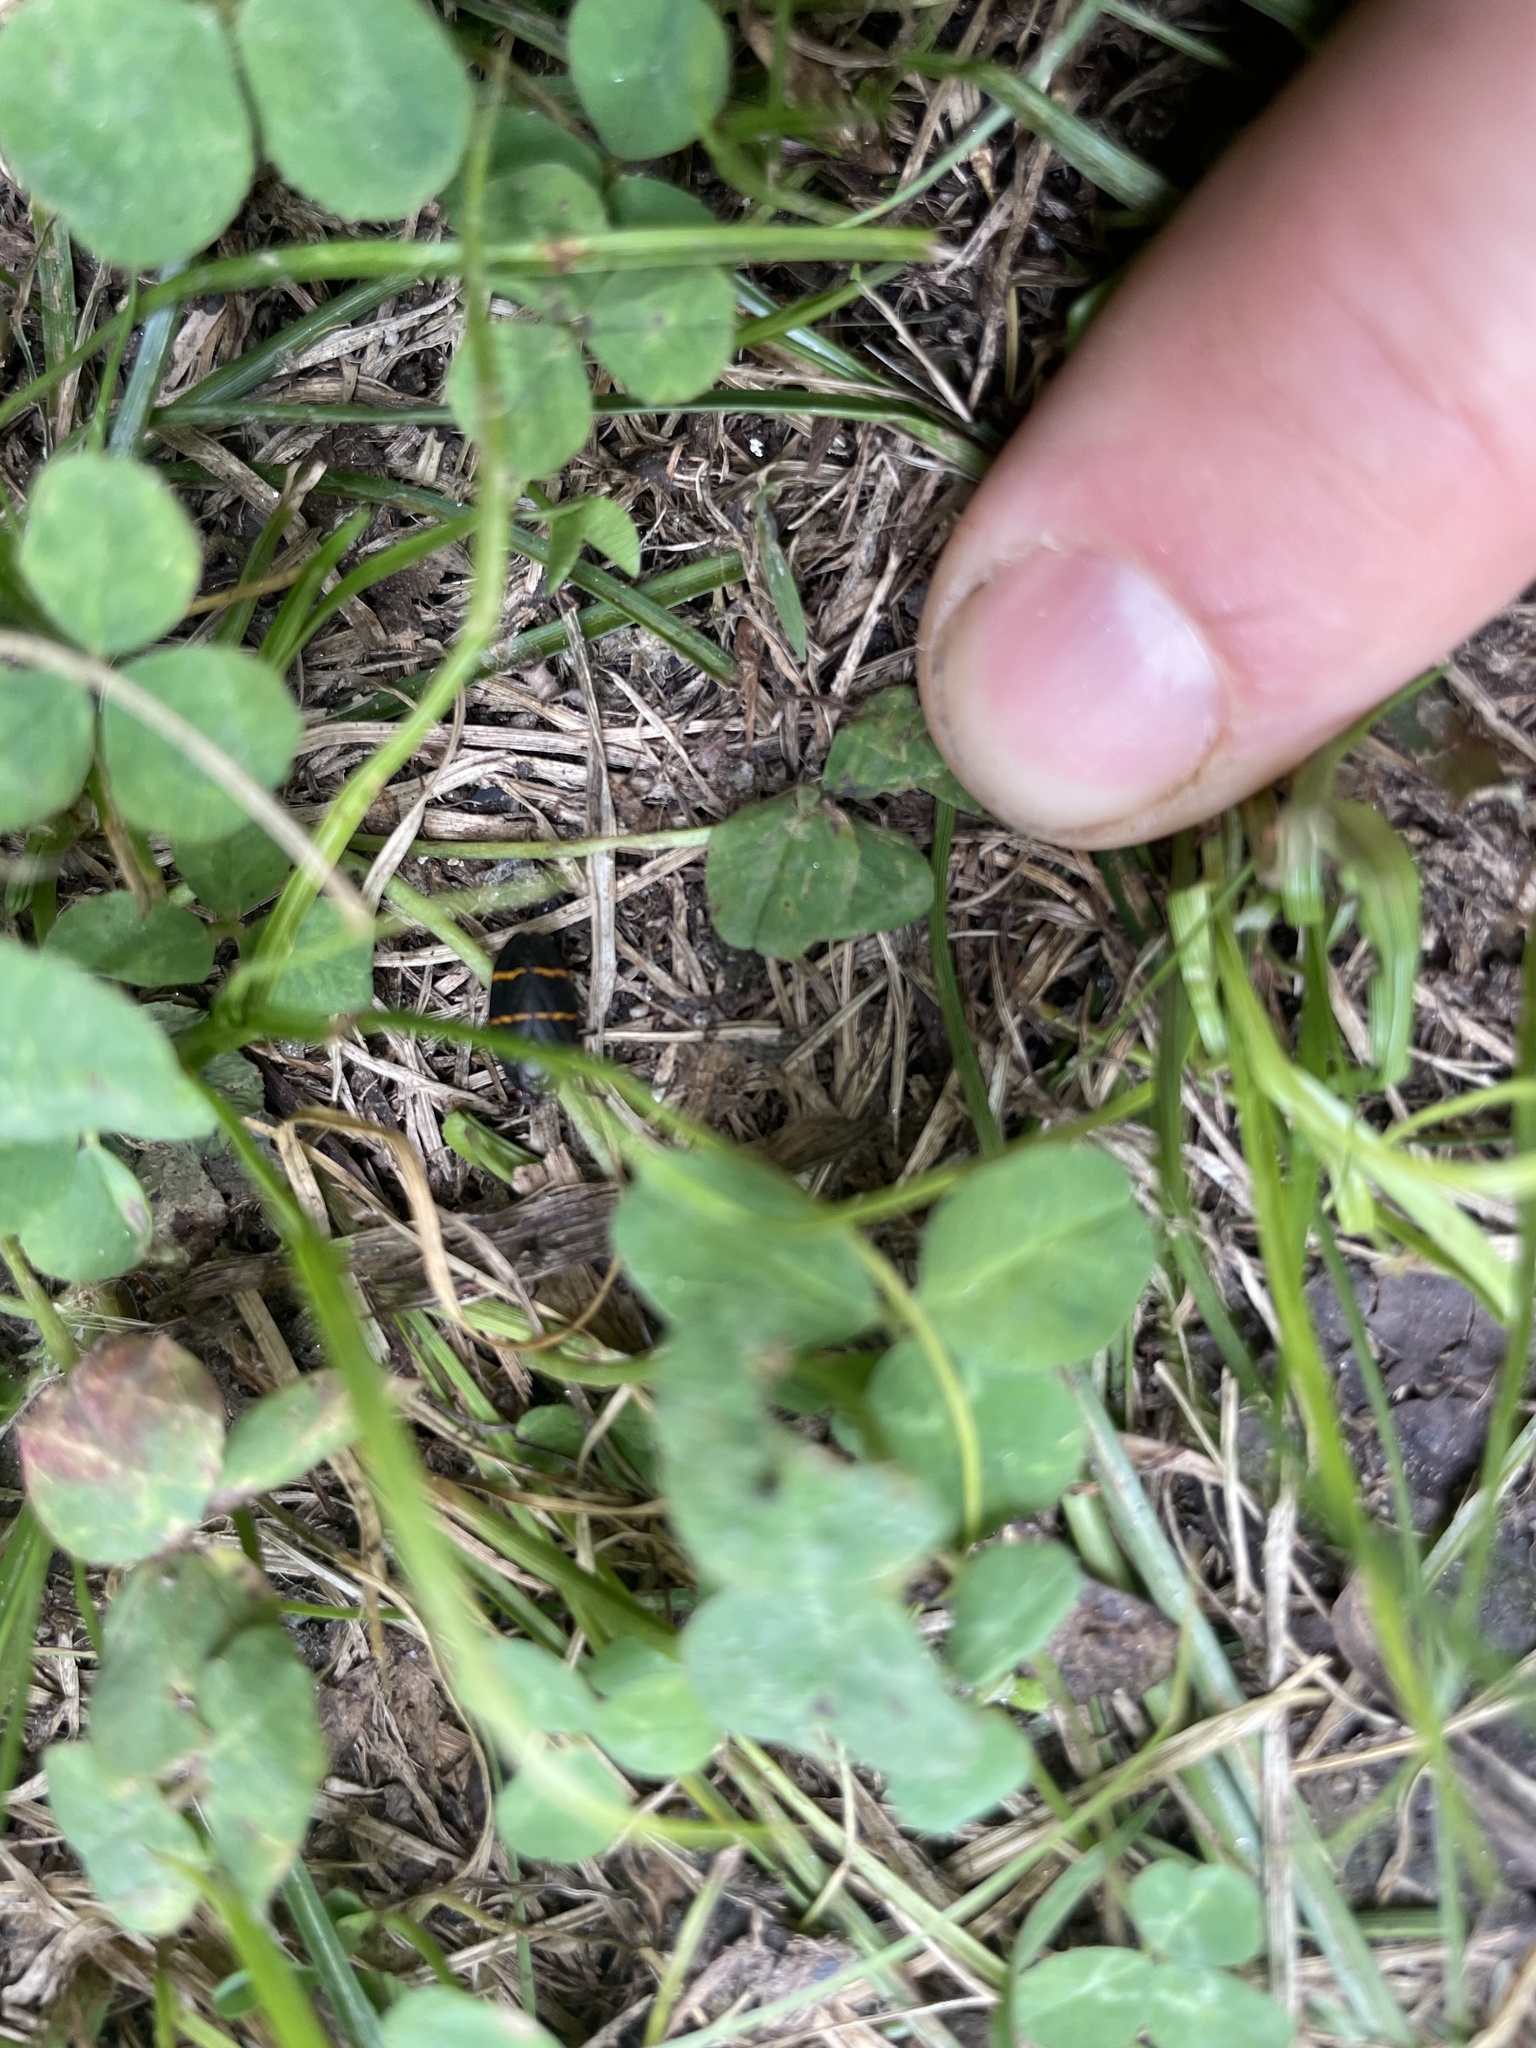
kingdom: Animalia
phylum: Arthropoda
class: Insecta
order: Hemiptera
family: Cercopidae
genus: Prosapia
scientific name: Prosapia bicincta
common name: Twolined spittlebug
